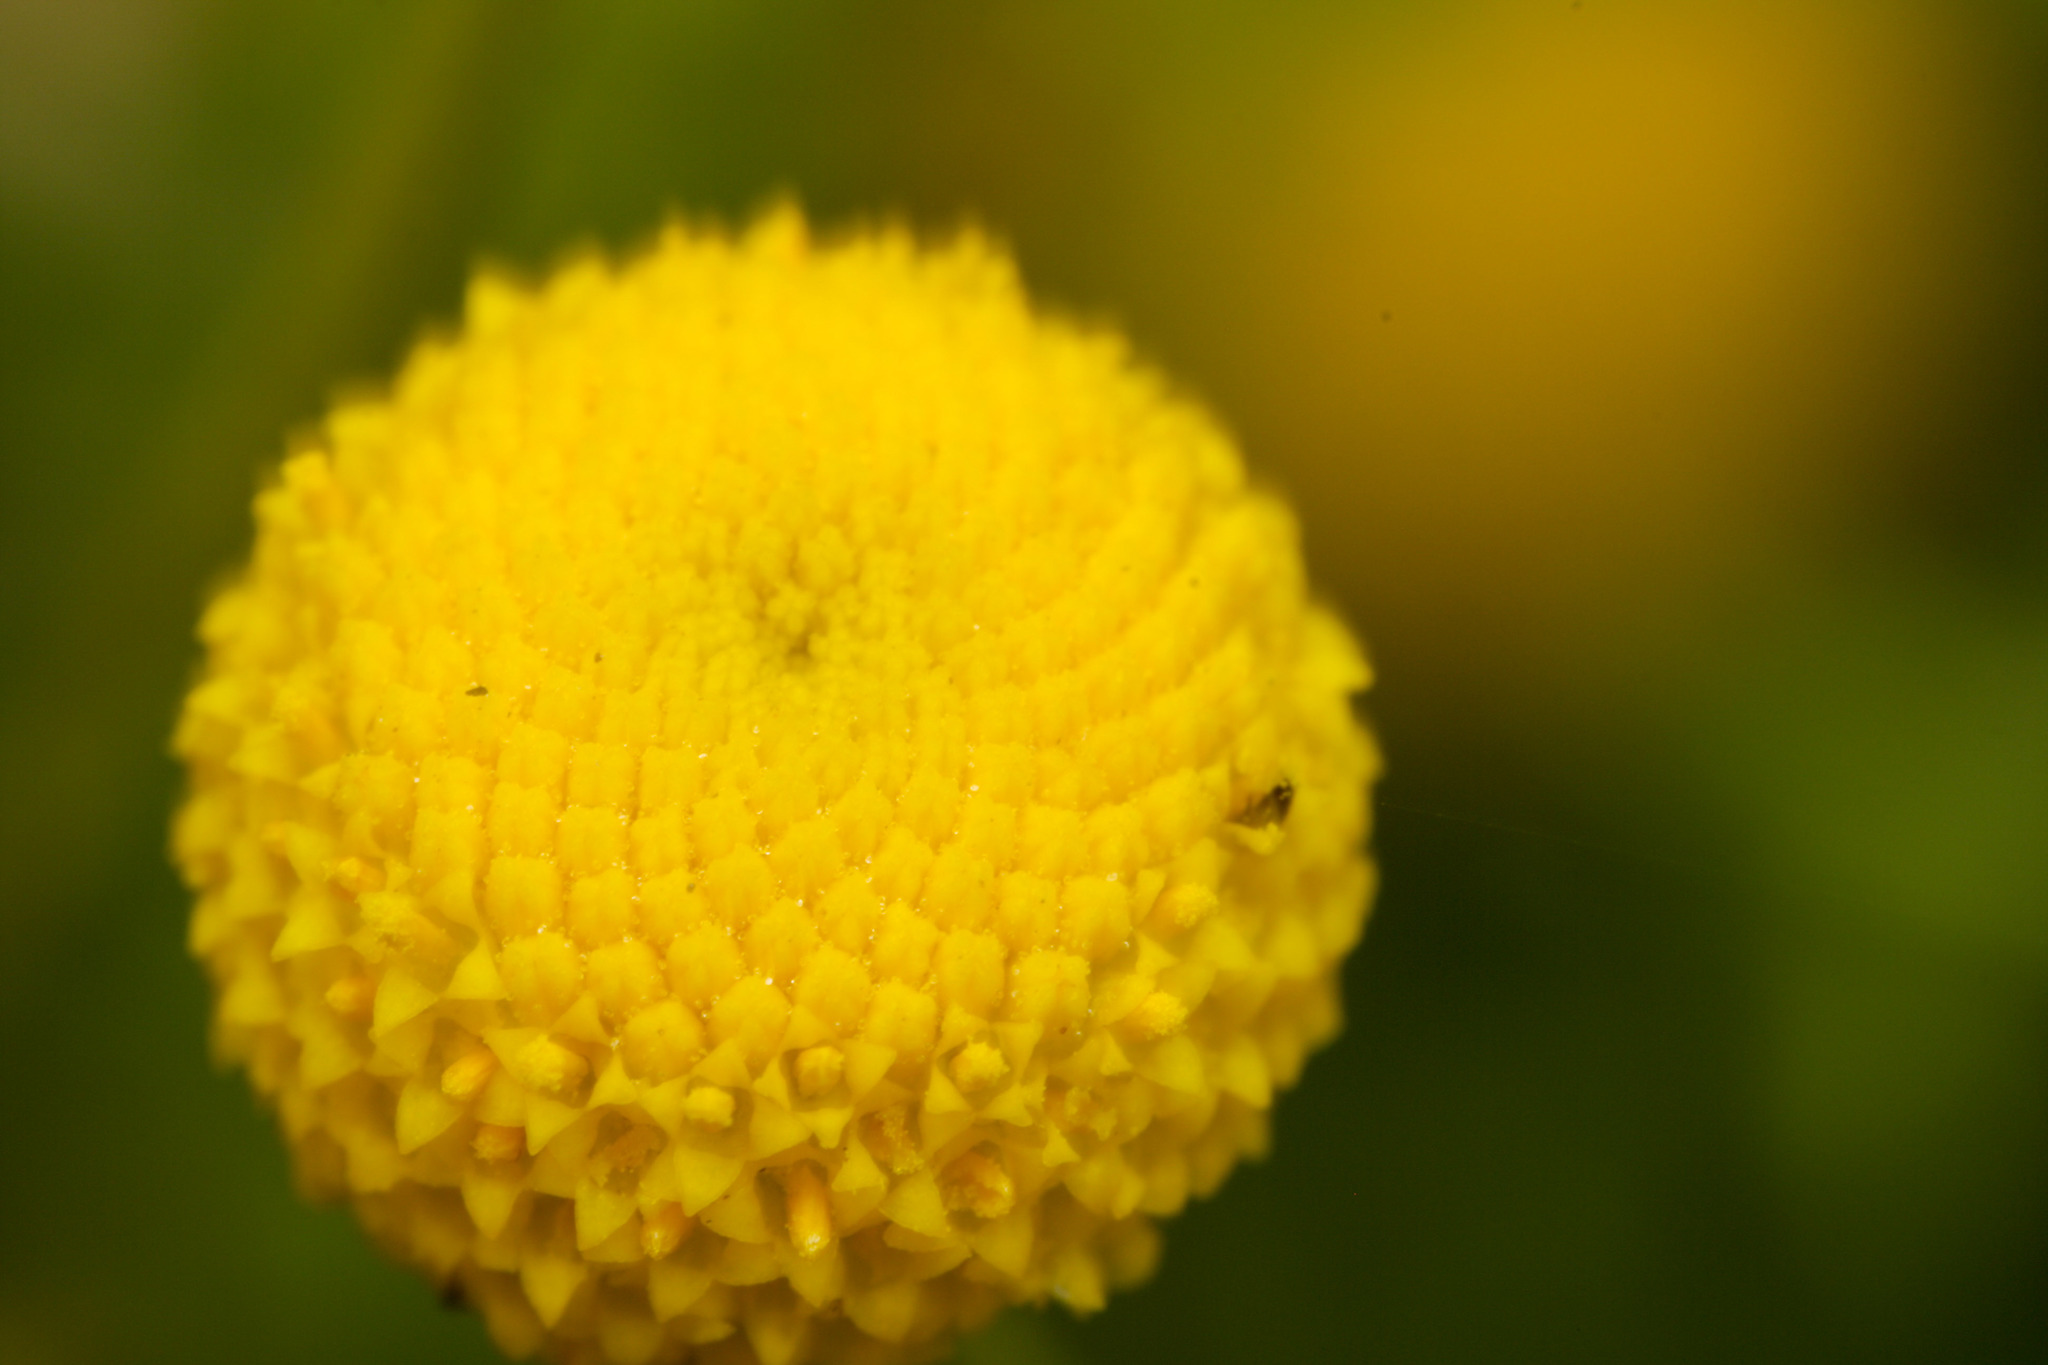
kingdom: Plantae
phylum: Tracheophyta
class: Magnoliopsida
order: Asterales
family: Asteraceae
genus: Oncosiphon
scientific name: Oncosiphon pilulifer
